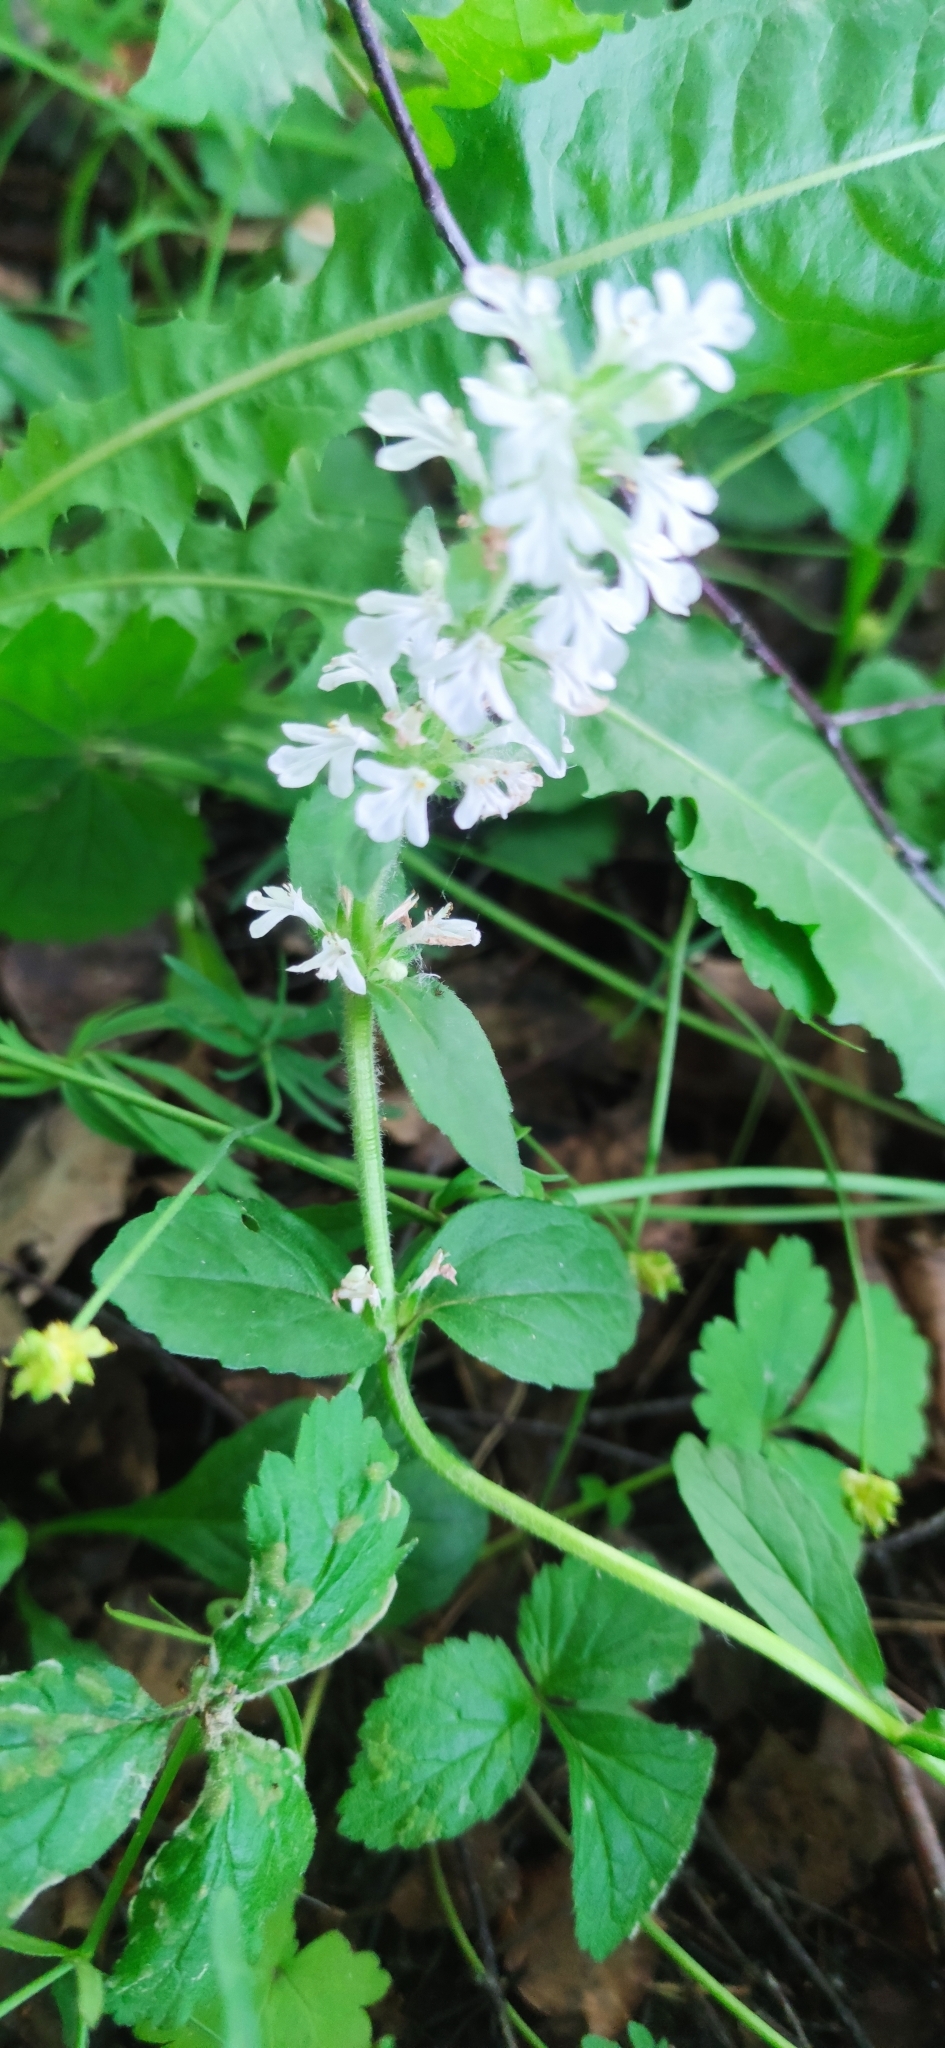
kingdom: Plantae
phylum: Tracheophyta
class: Magnoliopsida
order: Lamiales
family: Lamiaceae
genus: Ajuga
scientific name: Ajuga reptans
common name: Bugle
